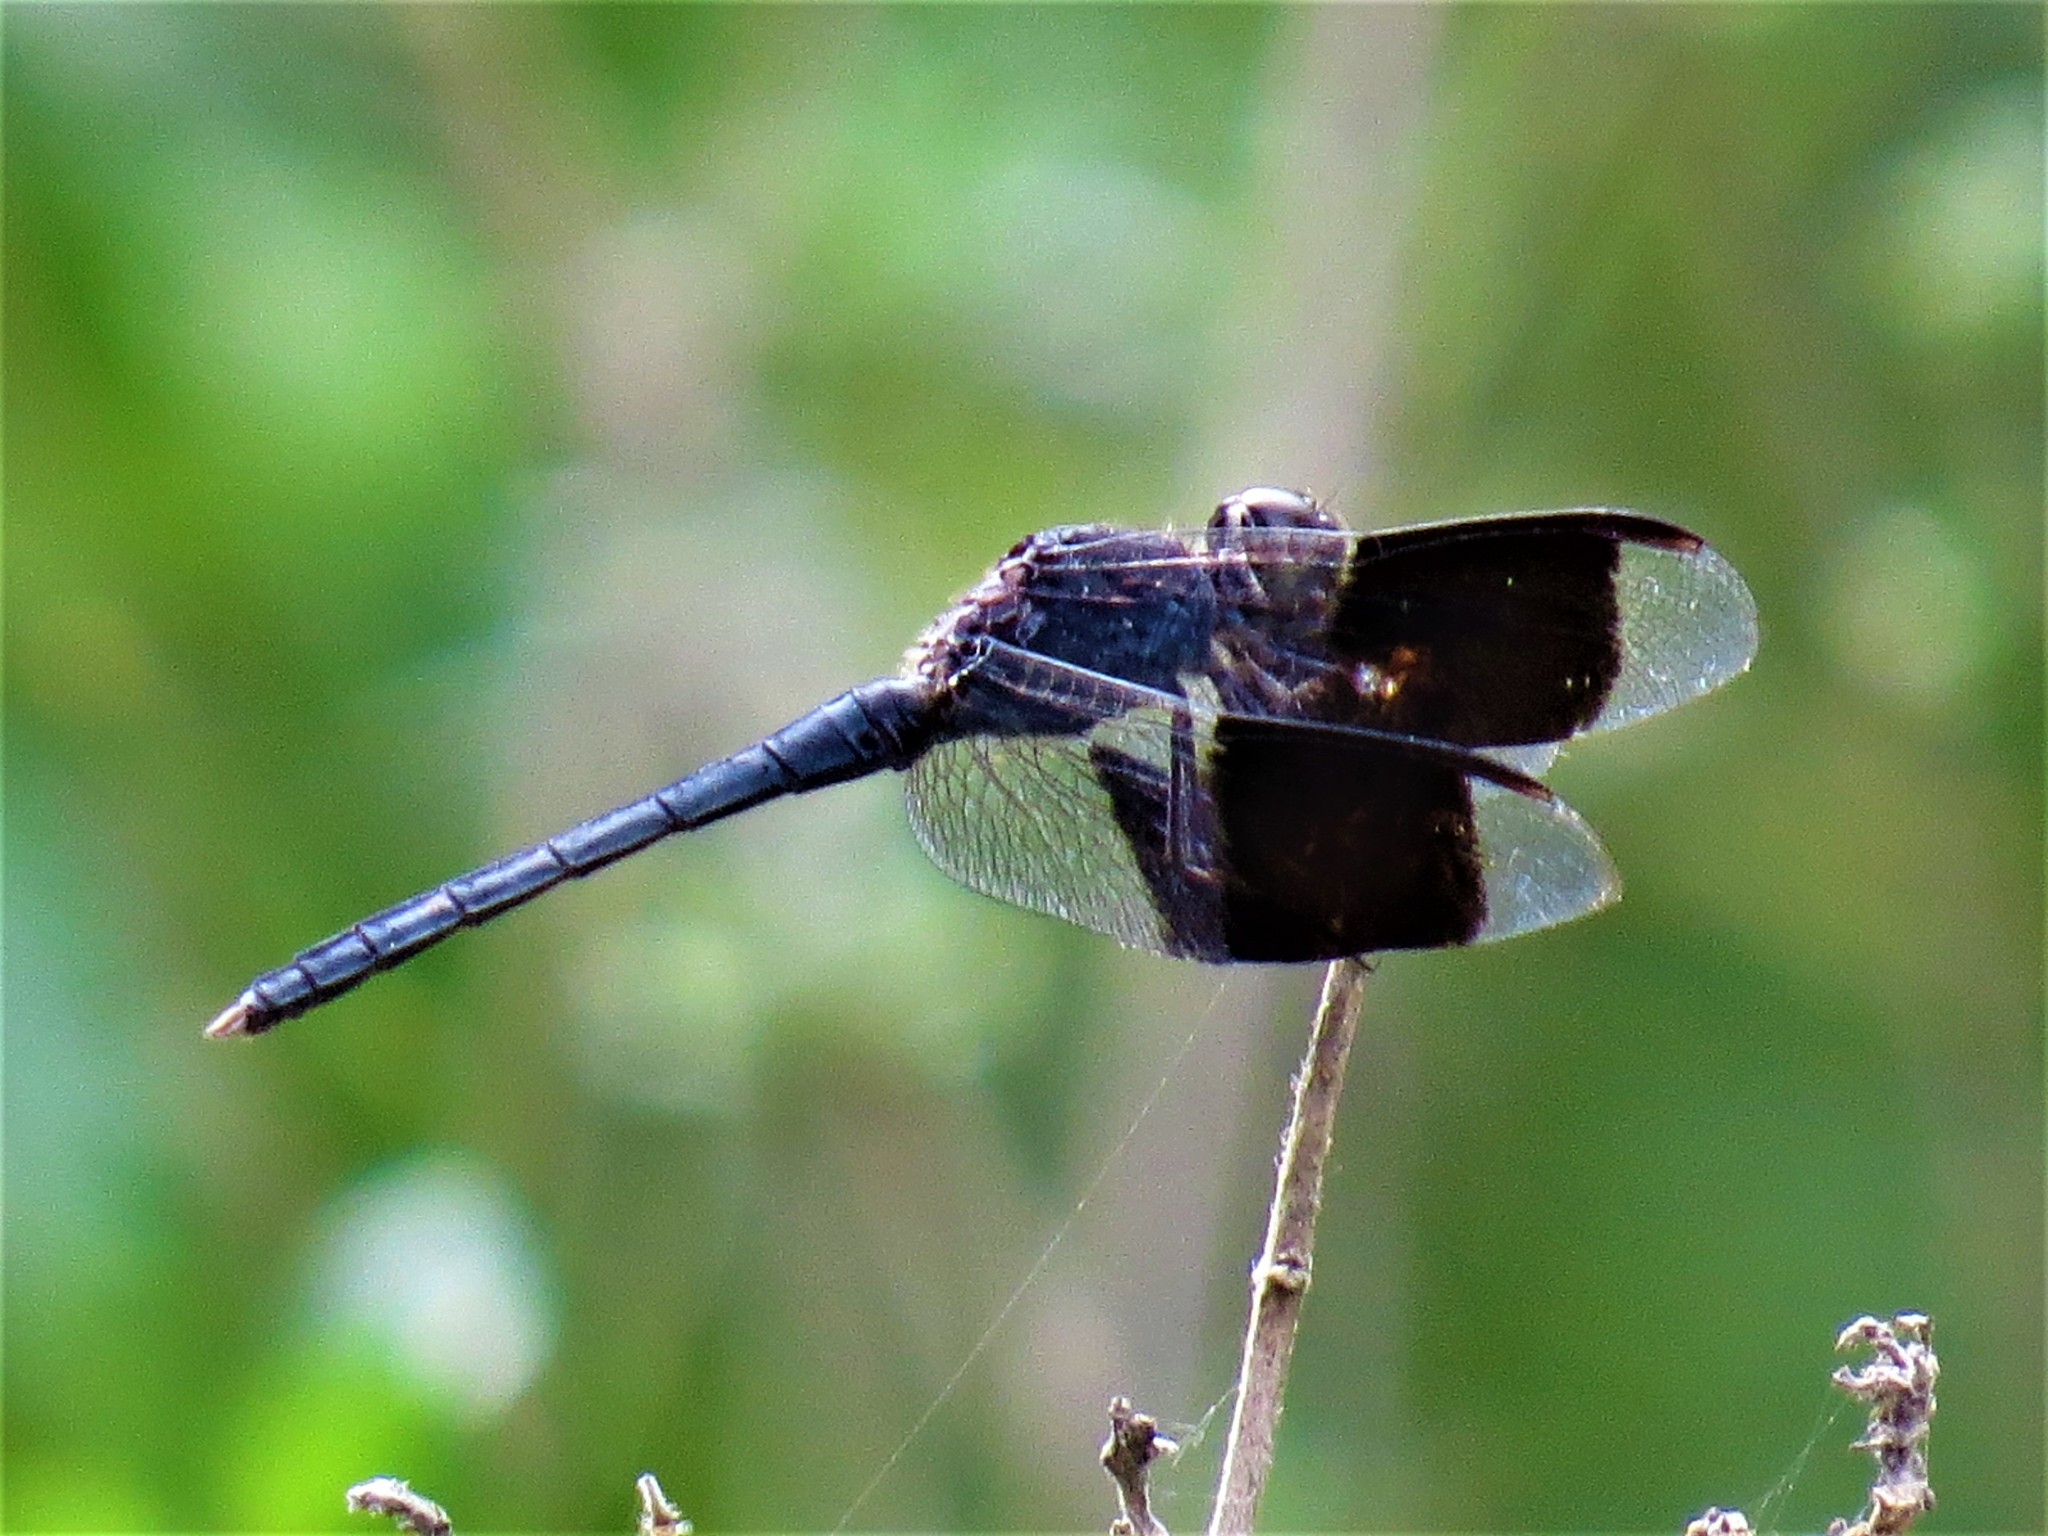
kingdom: Animalia
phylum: Arthropoda
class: Insecta
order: Odonata
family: Libellulidae
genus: Erythrodiplax
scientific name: Erythrodiplax umbrata
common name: Band-winged dragonlet
